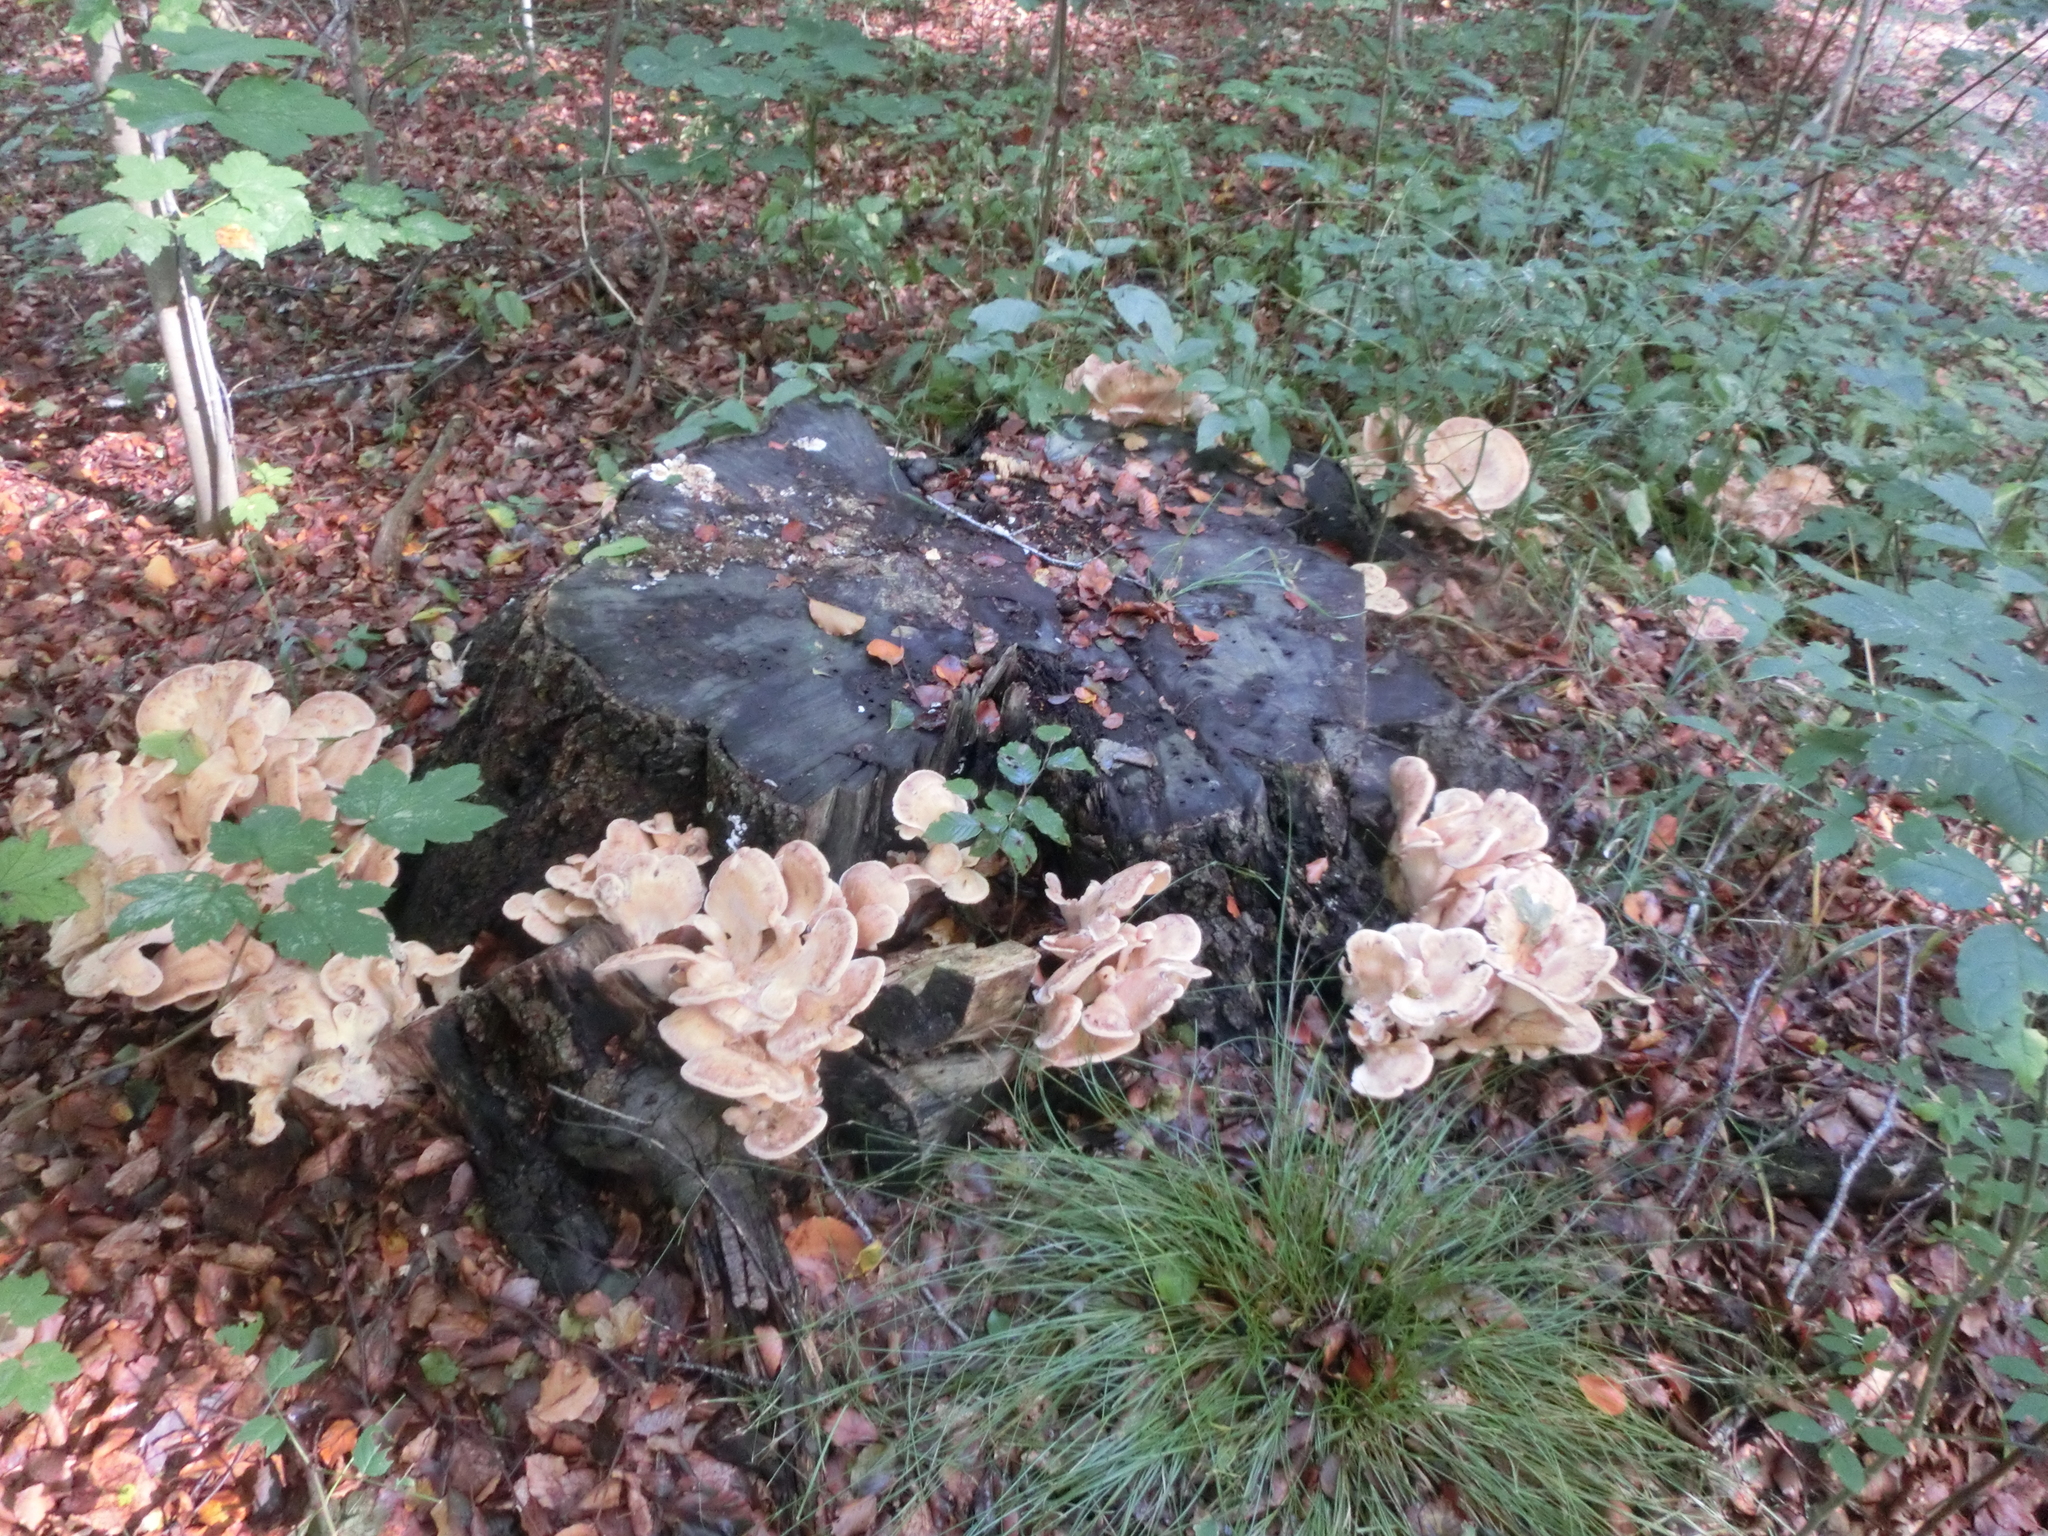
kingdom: Fungi
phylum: Basidiomycota
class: Agaricomycetes
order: Polyporales
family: Meripilaceae
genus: Meripilus
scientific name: Meripilus giganteus
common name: Giant polypore
